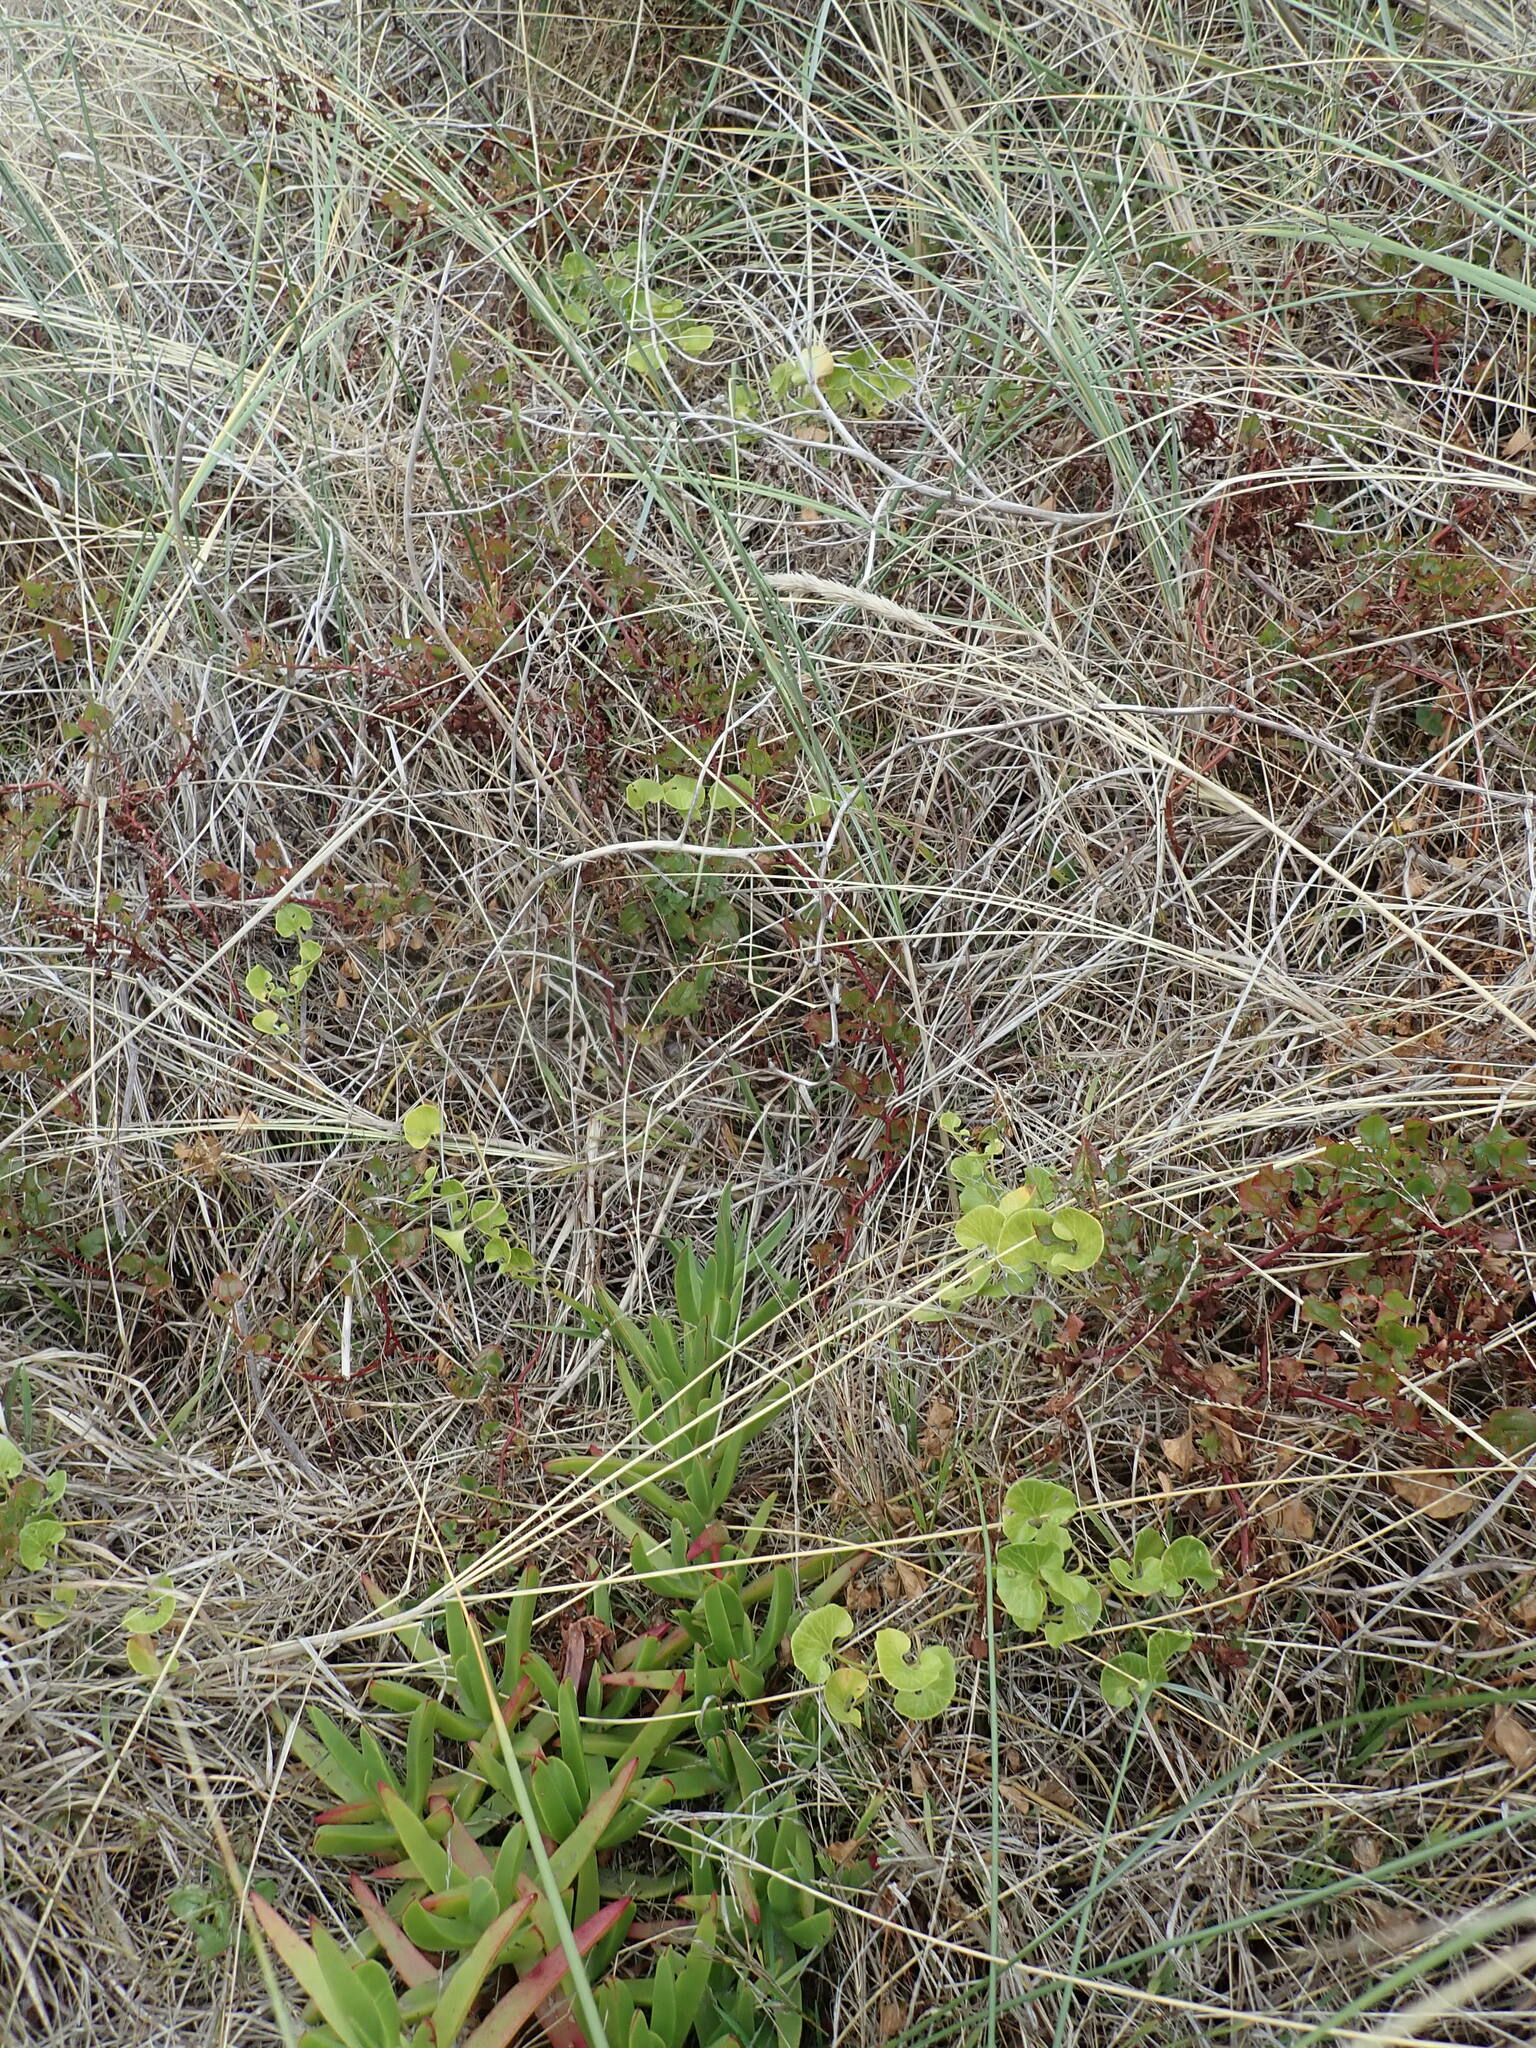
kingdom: Plantae
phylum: Tracheophyta
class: Magnoliopsida
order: Solanales
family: Convolvulaceae
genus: Calystegia
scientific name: Calystegia soldanella
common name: Sea bindweed
